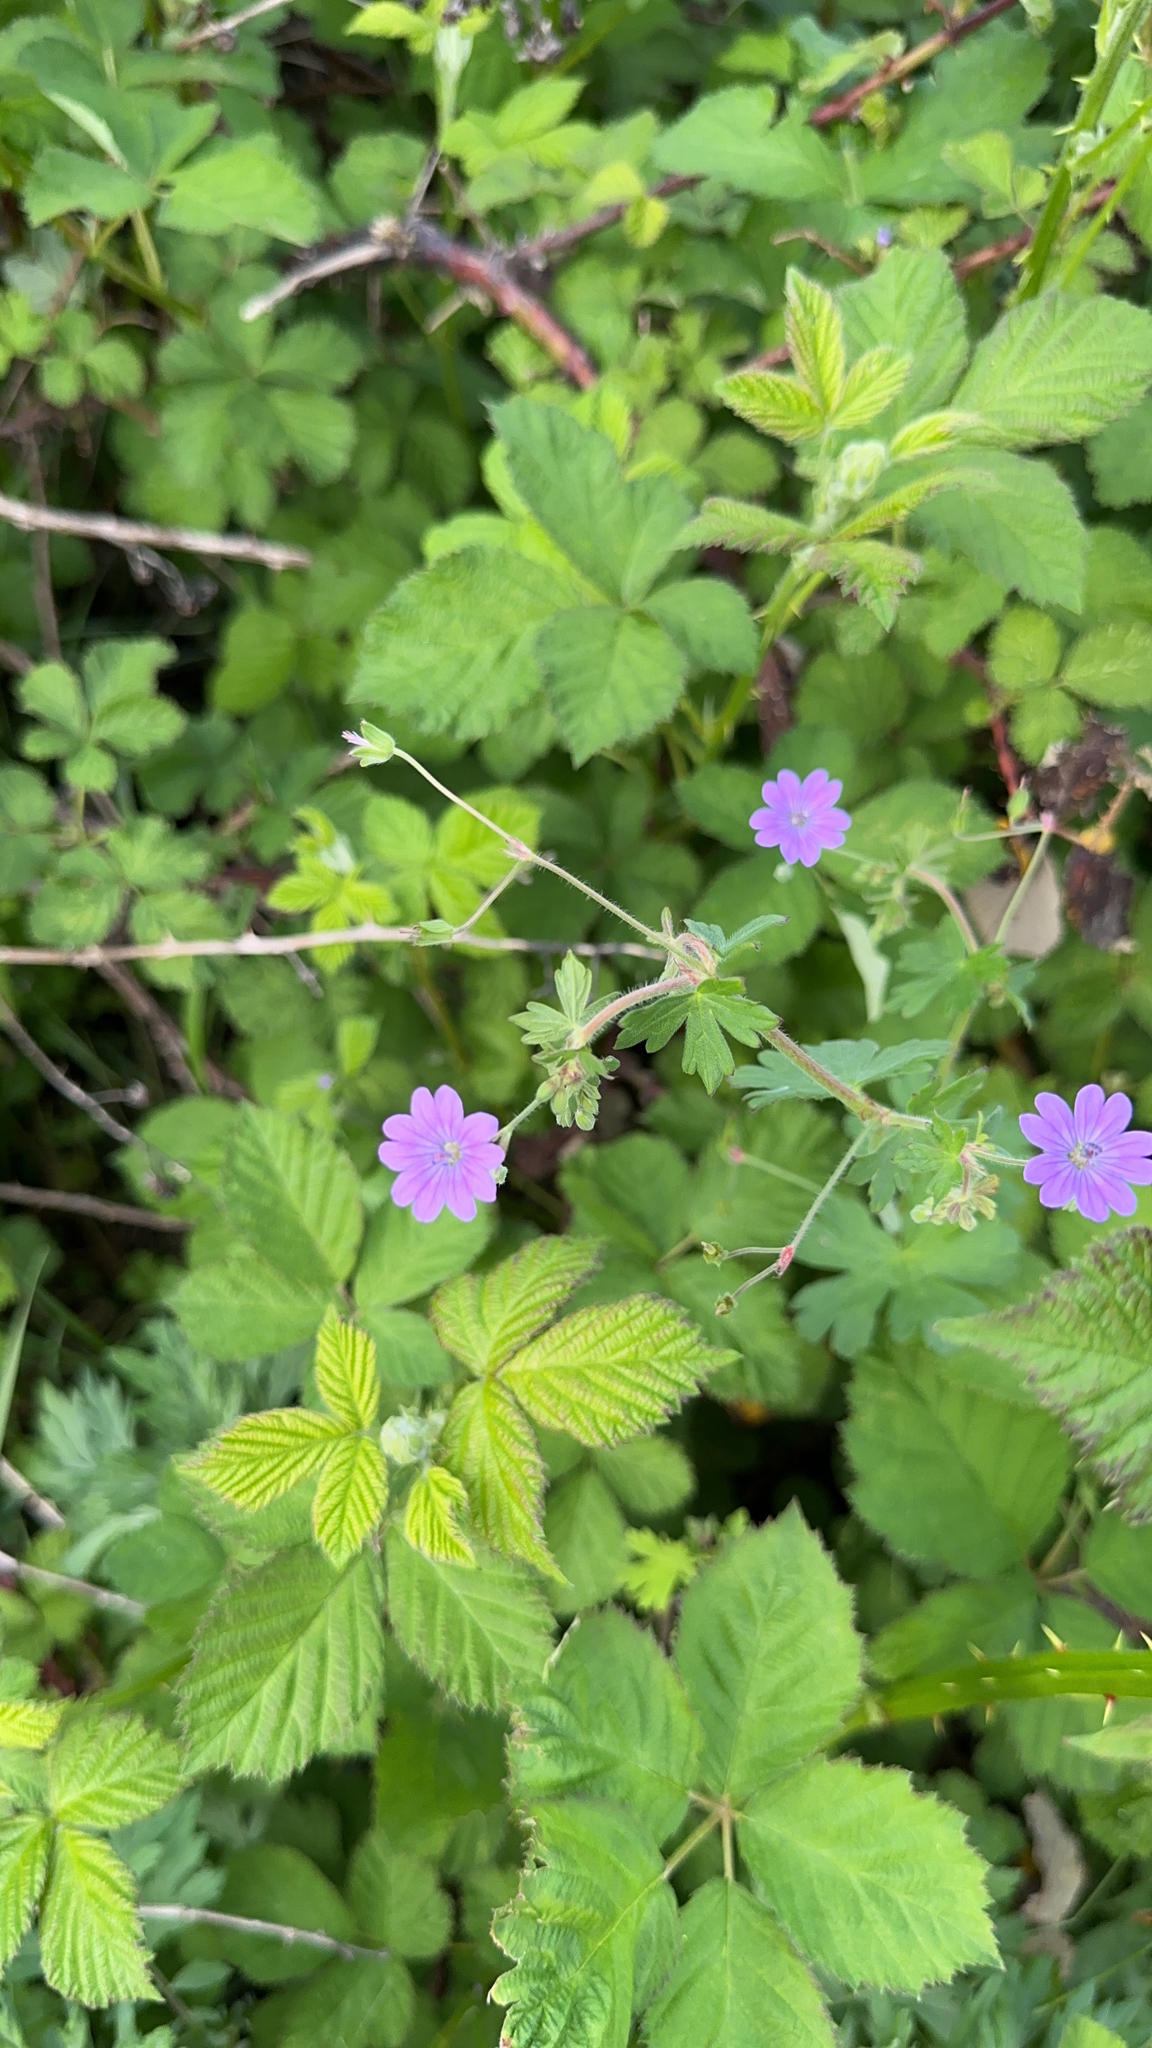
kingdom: Plantae
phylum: Tracheophyta
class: Magnoliopsida
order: Geraniales
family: Geraniaceae
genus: Geranium
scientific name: Geranium pyrenaicum
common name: Hedgerow crane's-bill
